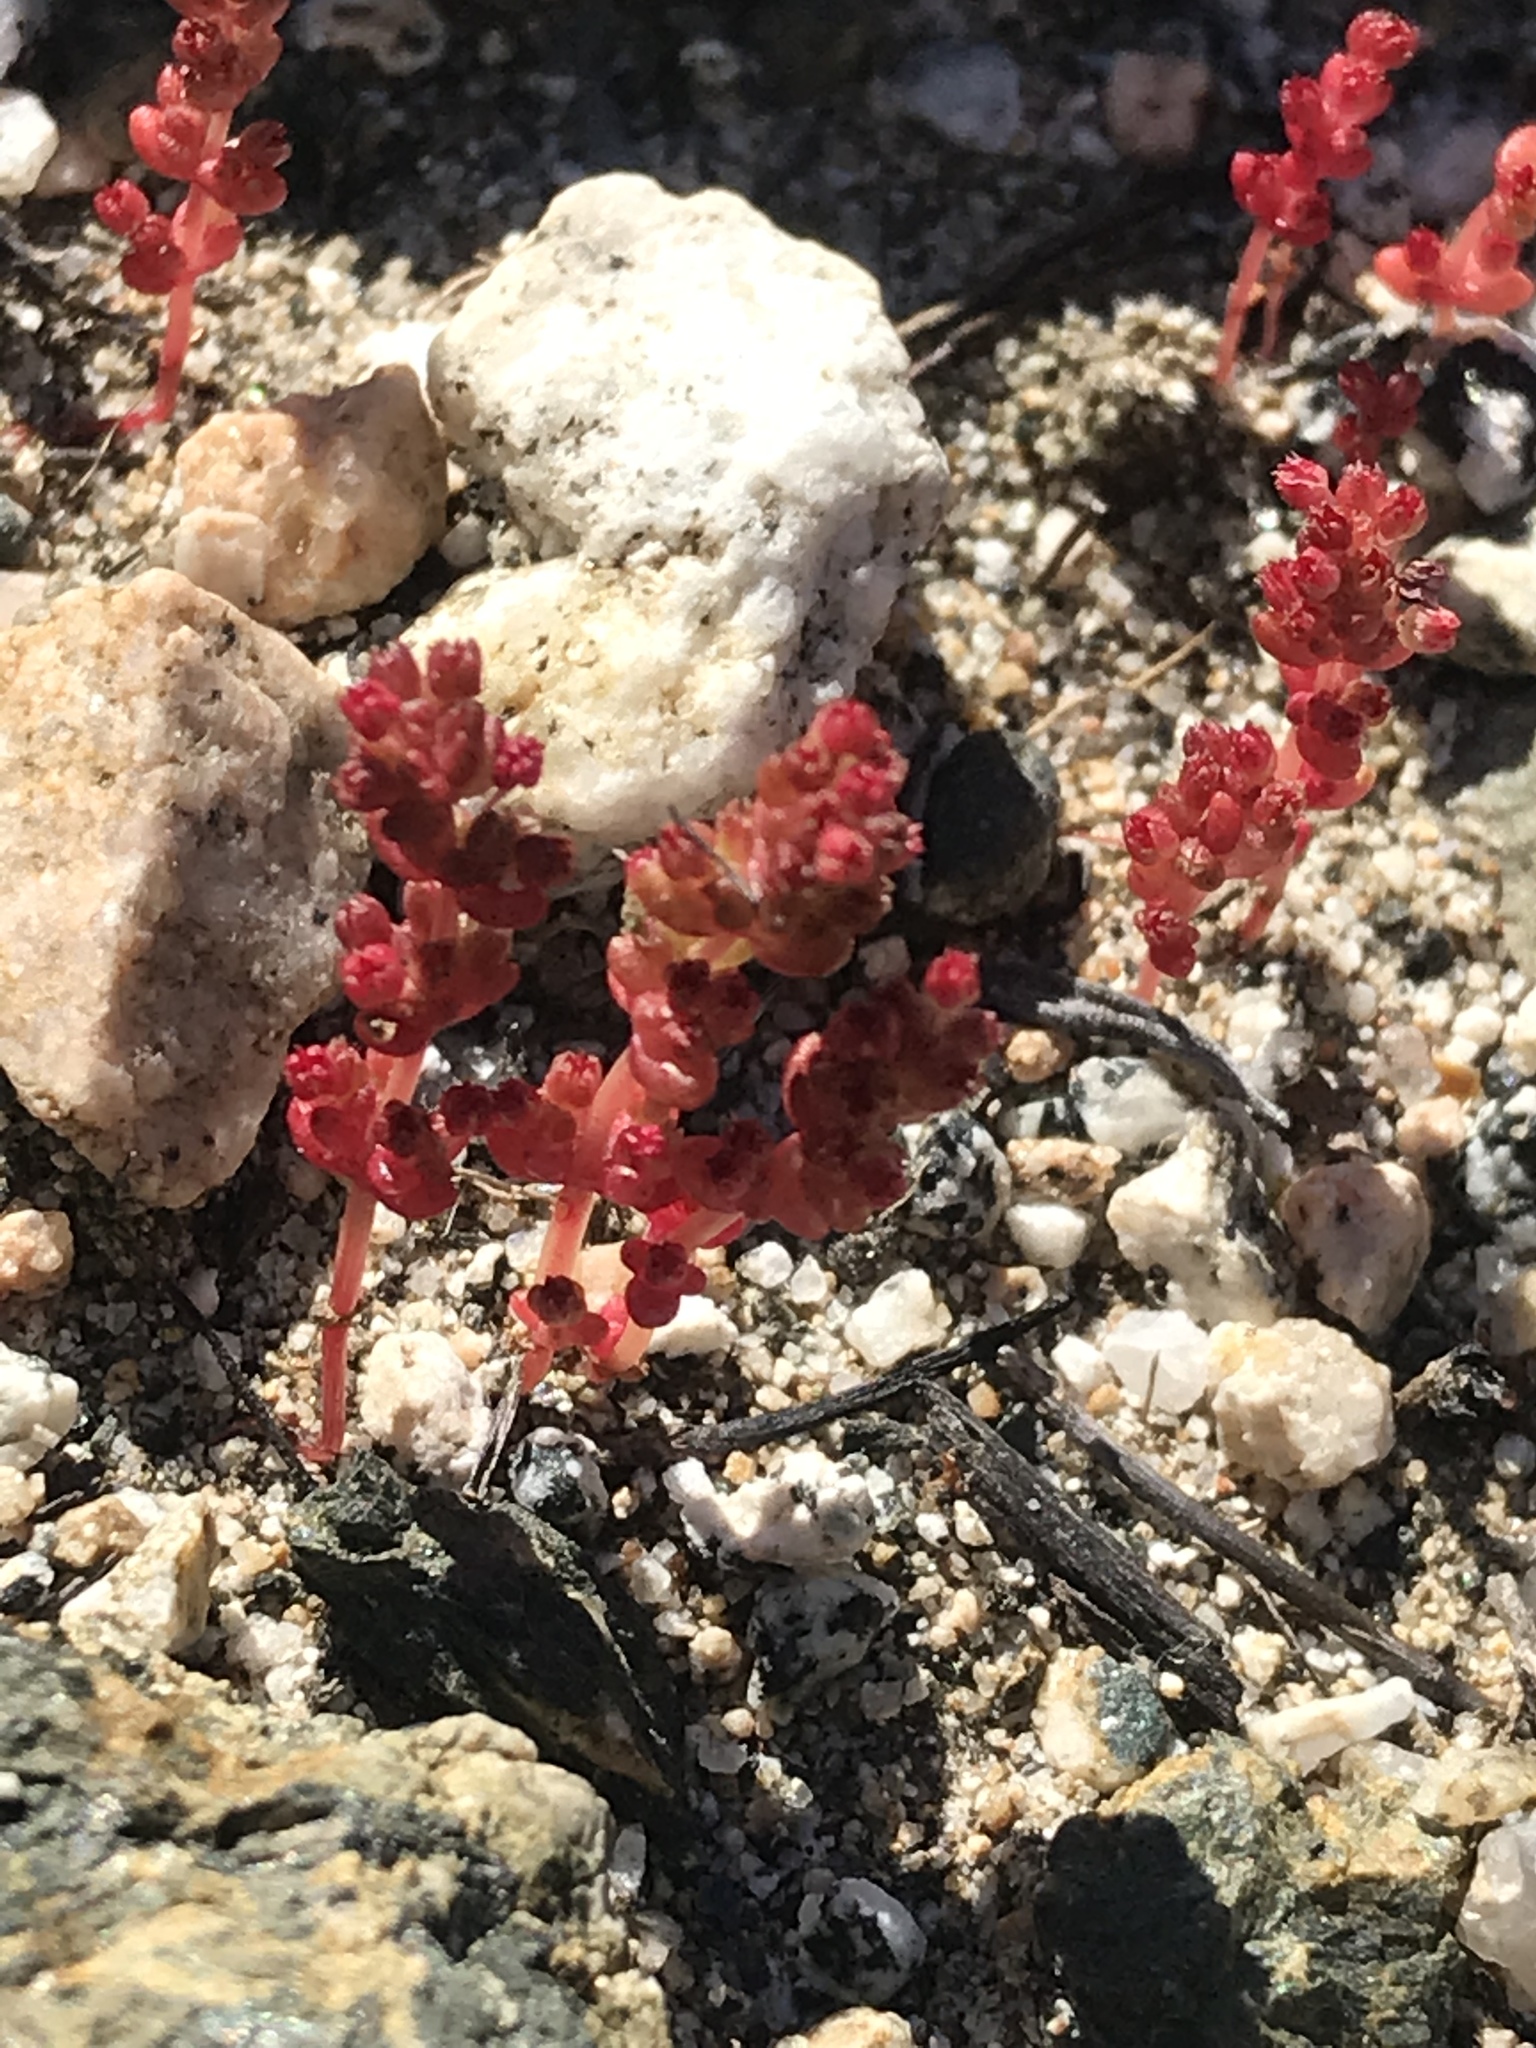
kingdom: Plantae
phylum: Tracheophyta
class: Magnoliopsida
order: Saxifragales
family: Crassulaceae
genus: Crassula
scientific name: Crassula connata
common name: Erect pygmyweed
